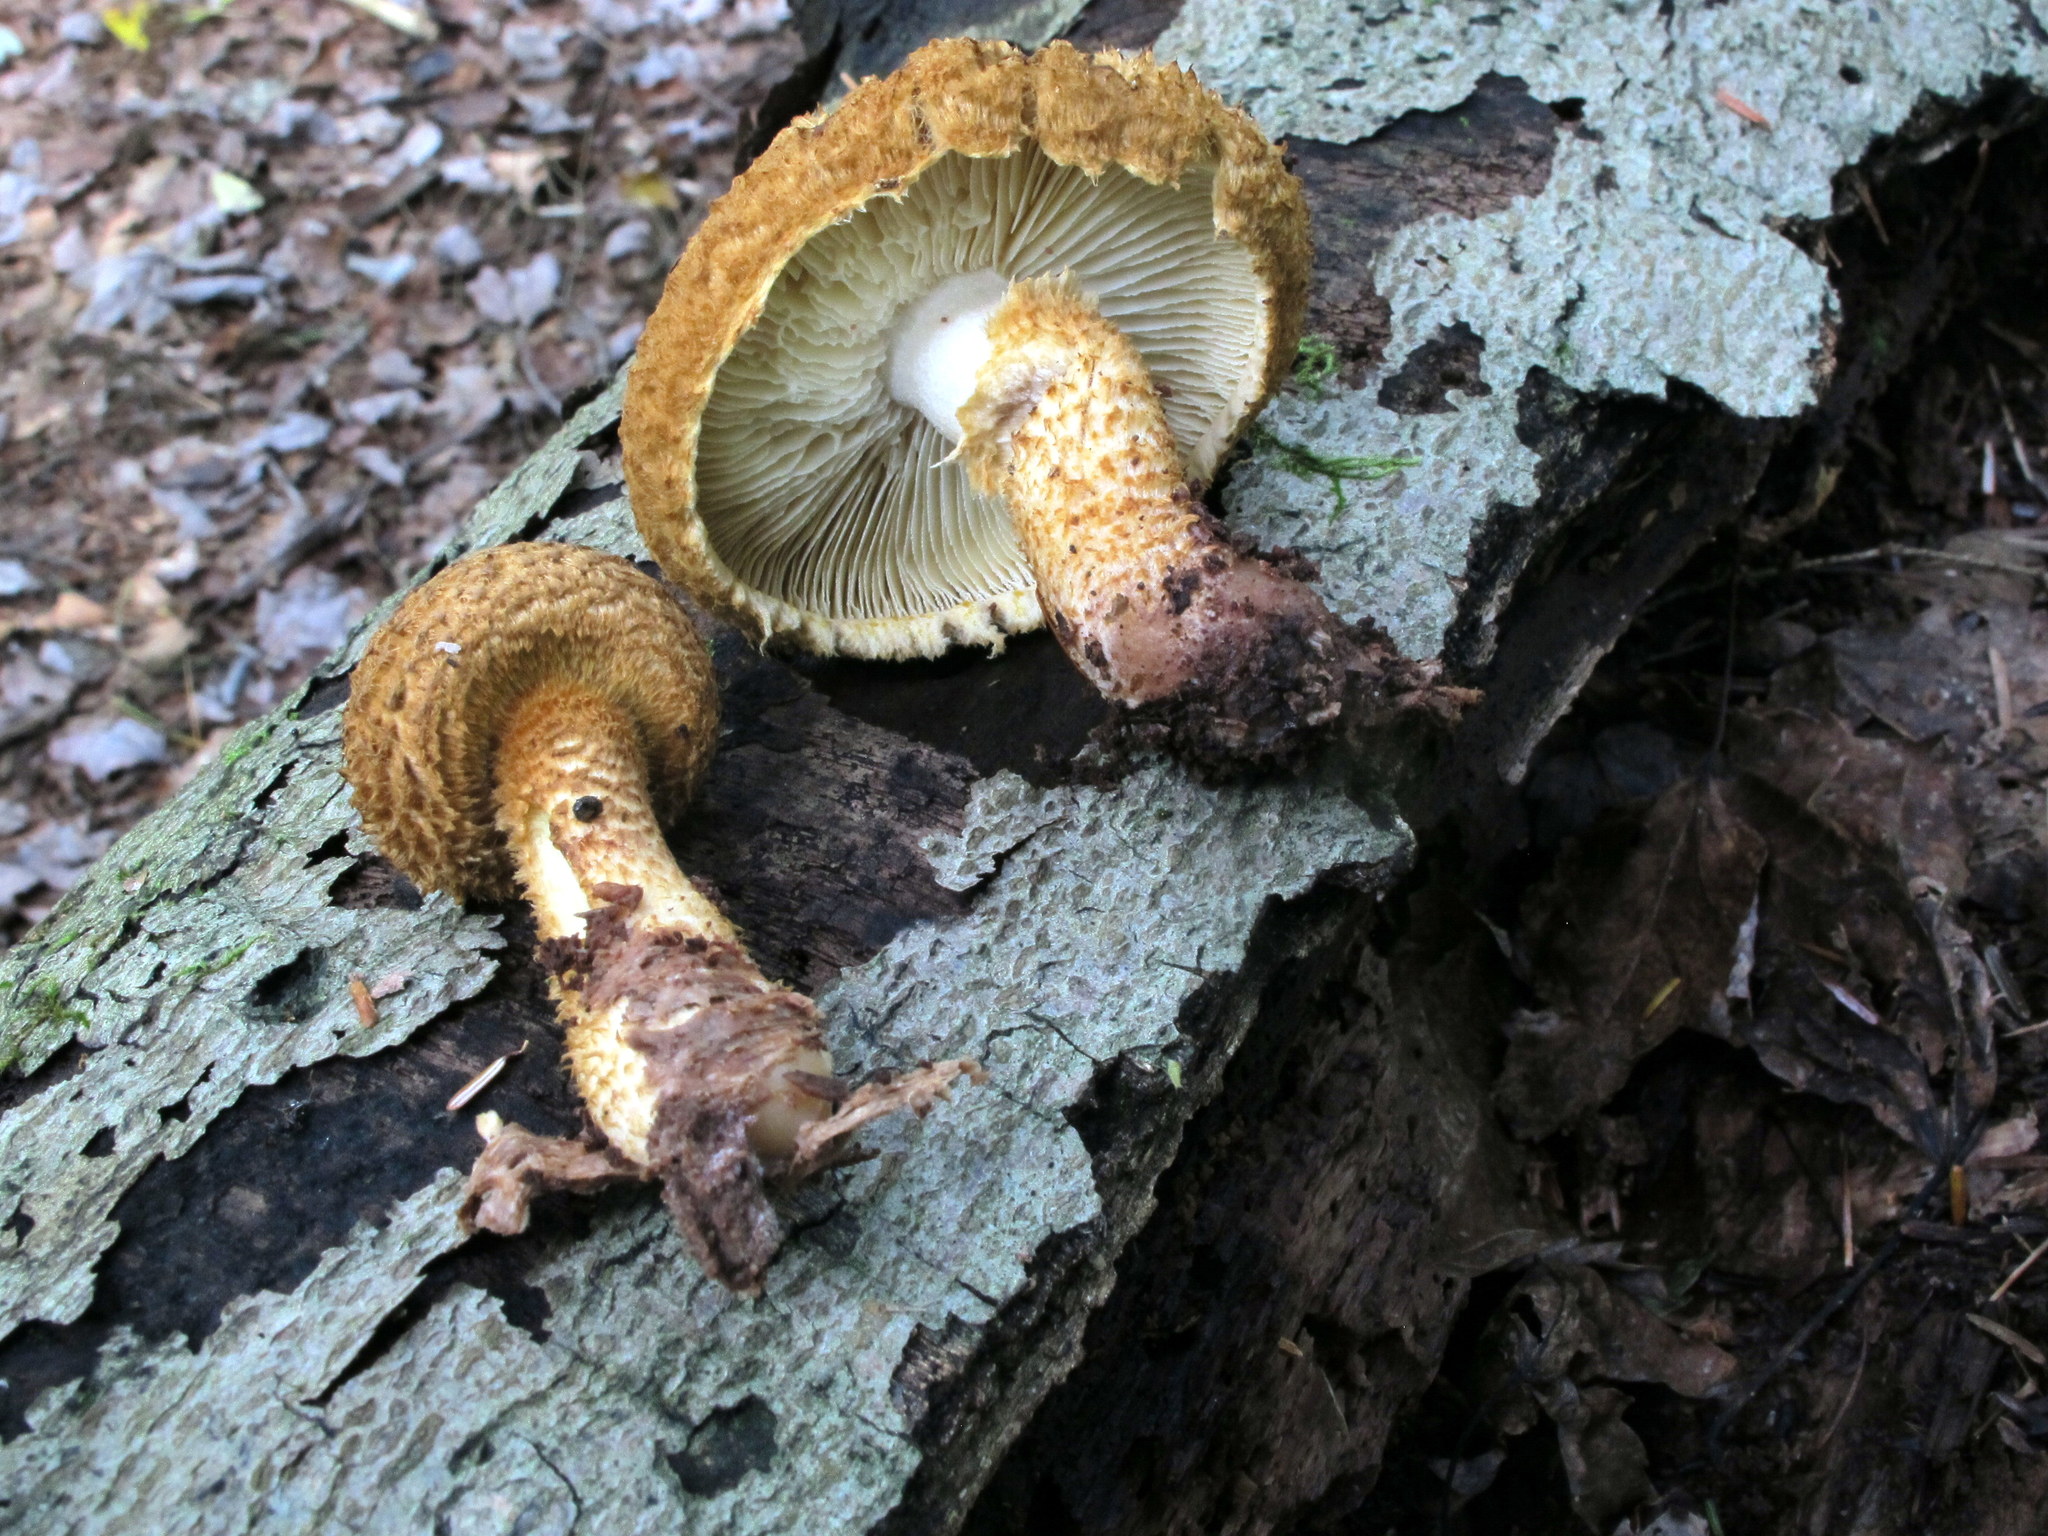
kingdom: Fungi
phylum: Basidiomycota
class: Agaricomycetes
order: Agaricales
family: Agaricaceae
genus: Leucopholiota
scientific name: Leucopholiota decorosa
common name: Decorated pholiota
